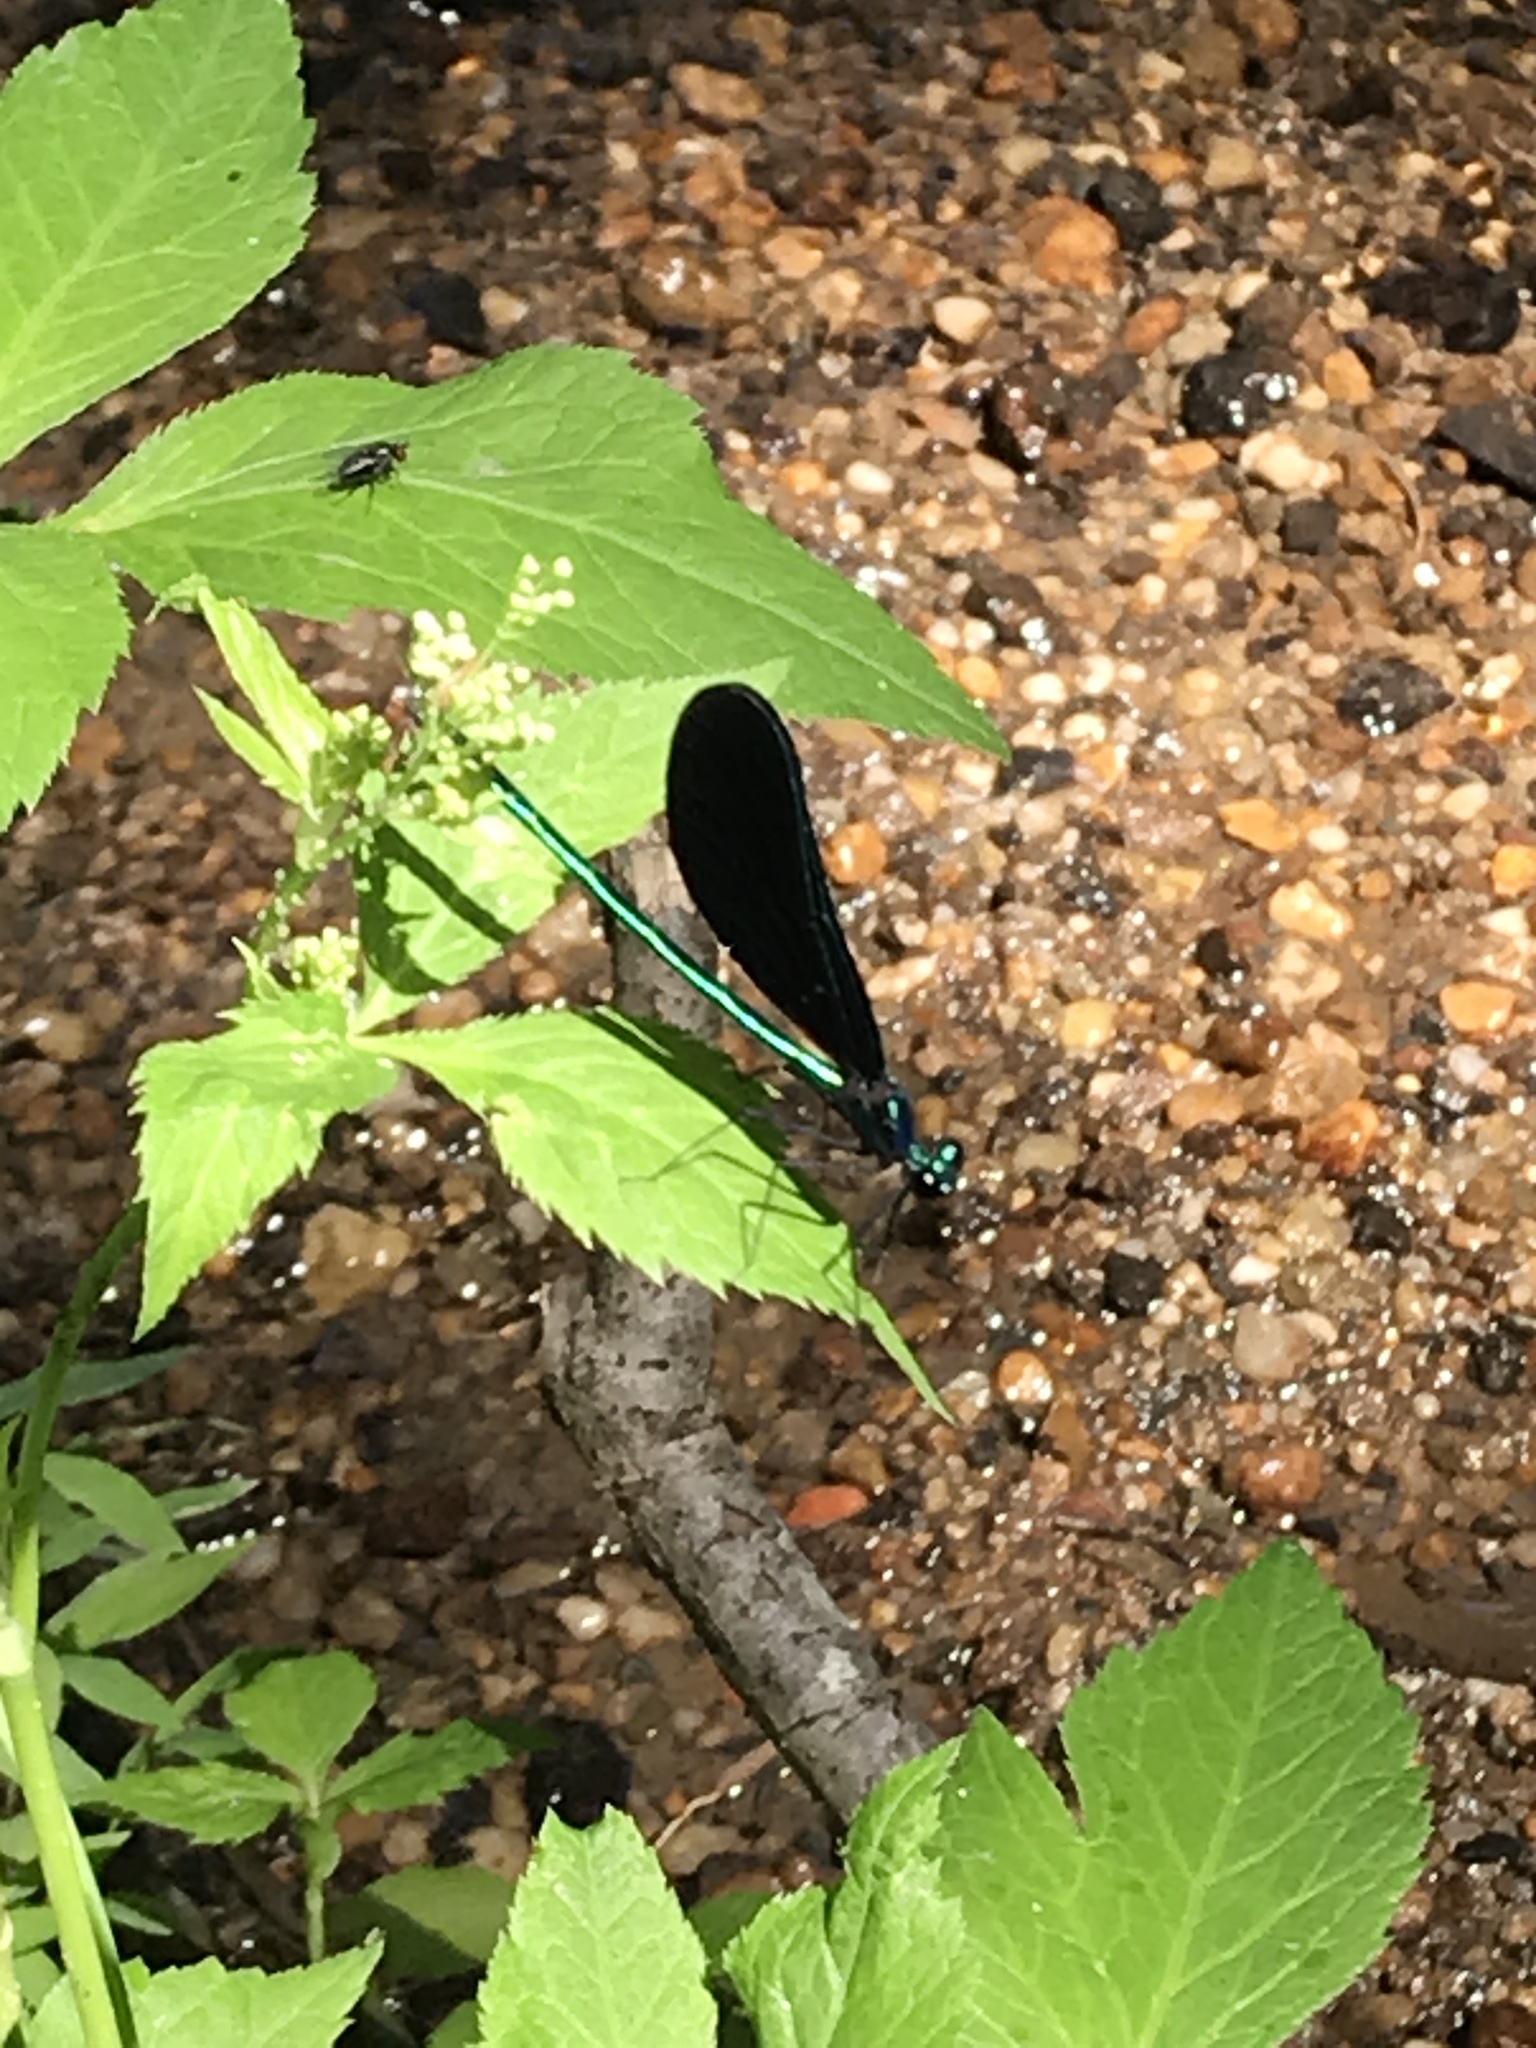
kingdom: Animalia
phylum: Arthropoda
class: Insecta
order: Odonata
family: Calopterygidae
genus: Calopteryx
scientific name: Calopteryx maculata
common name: Ebony jewelwing
